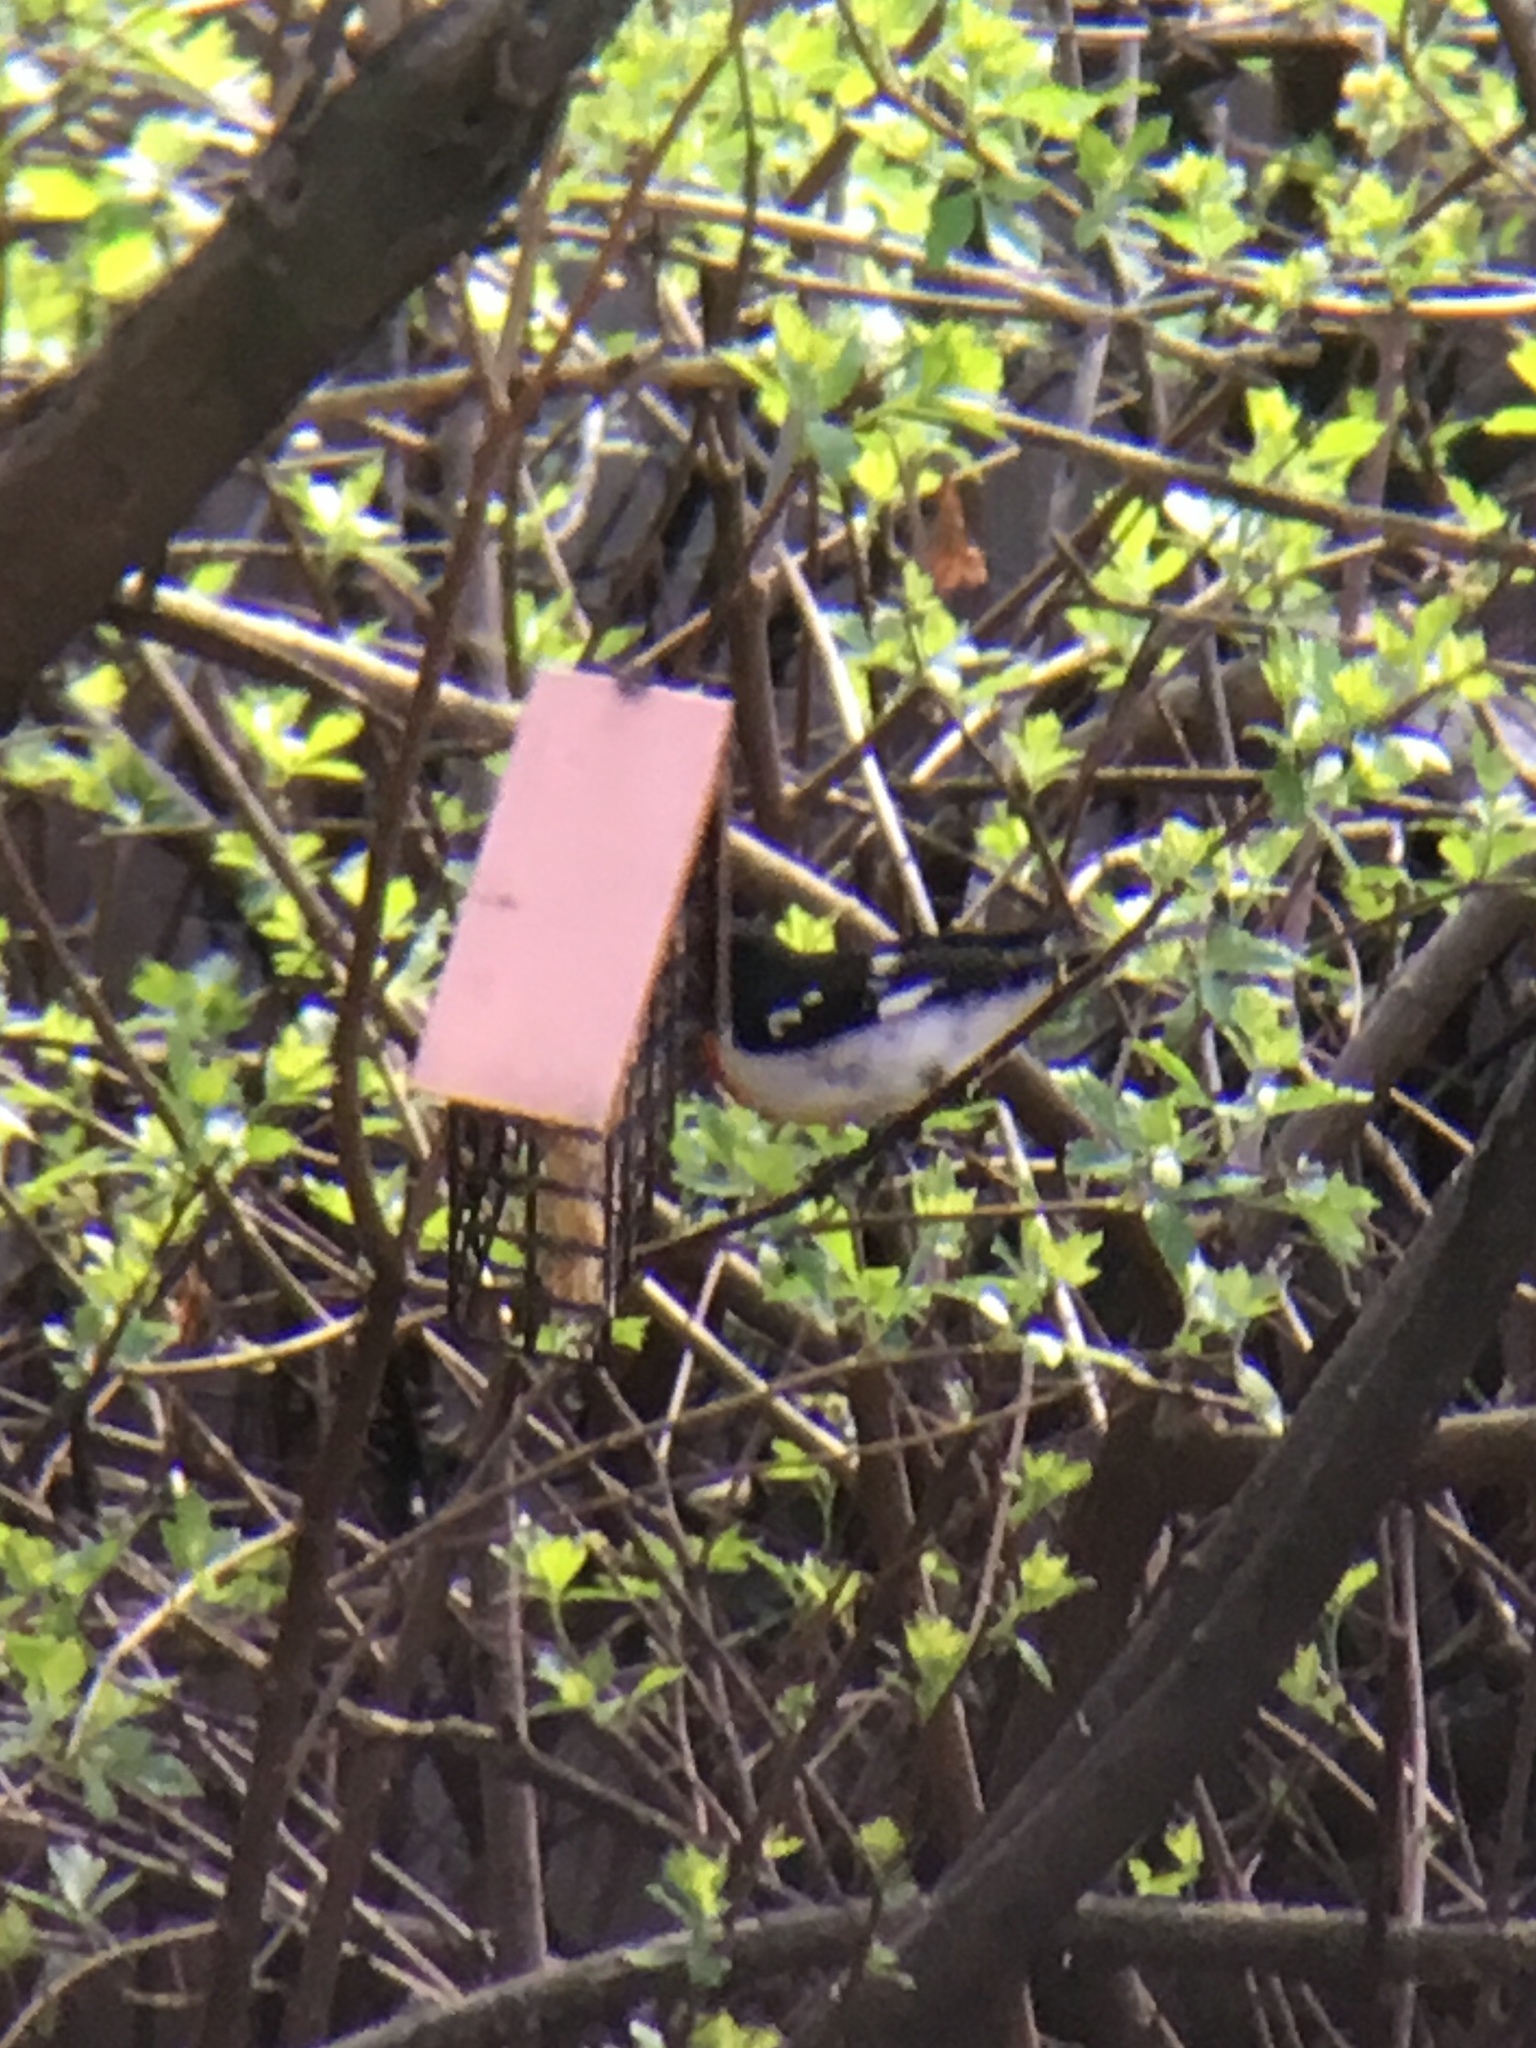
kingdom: Animalia
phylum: Chordata
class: Aves
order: Passeriformes
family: Cardinalidae
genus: Pheucticus
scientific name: Pheucticus ludovicianus
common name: Rose-breasted grosbeak
